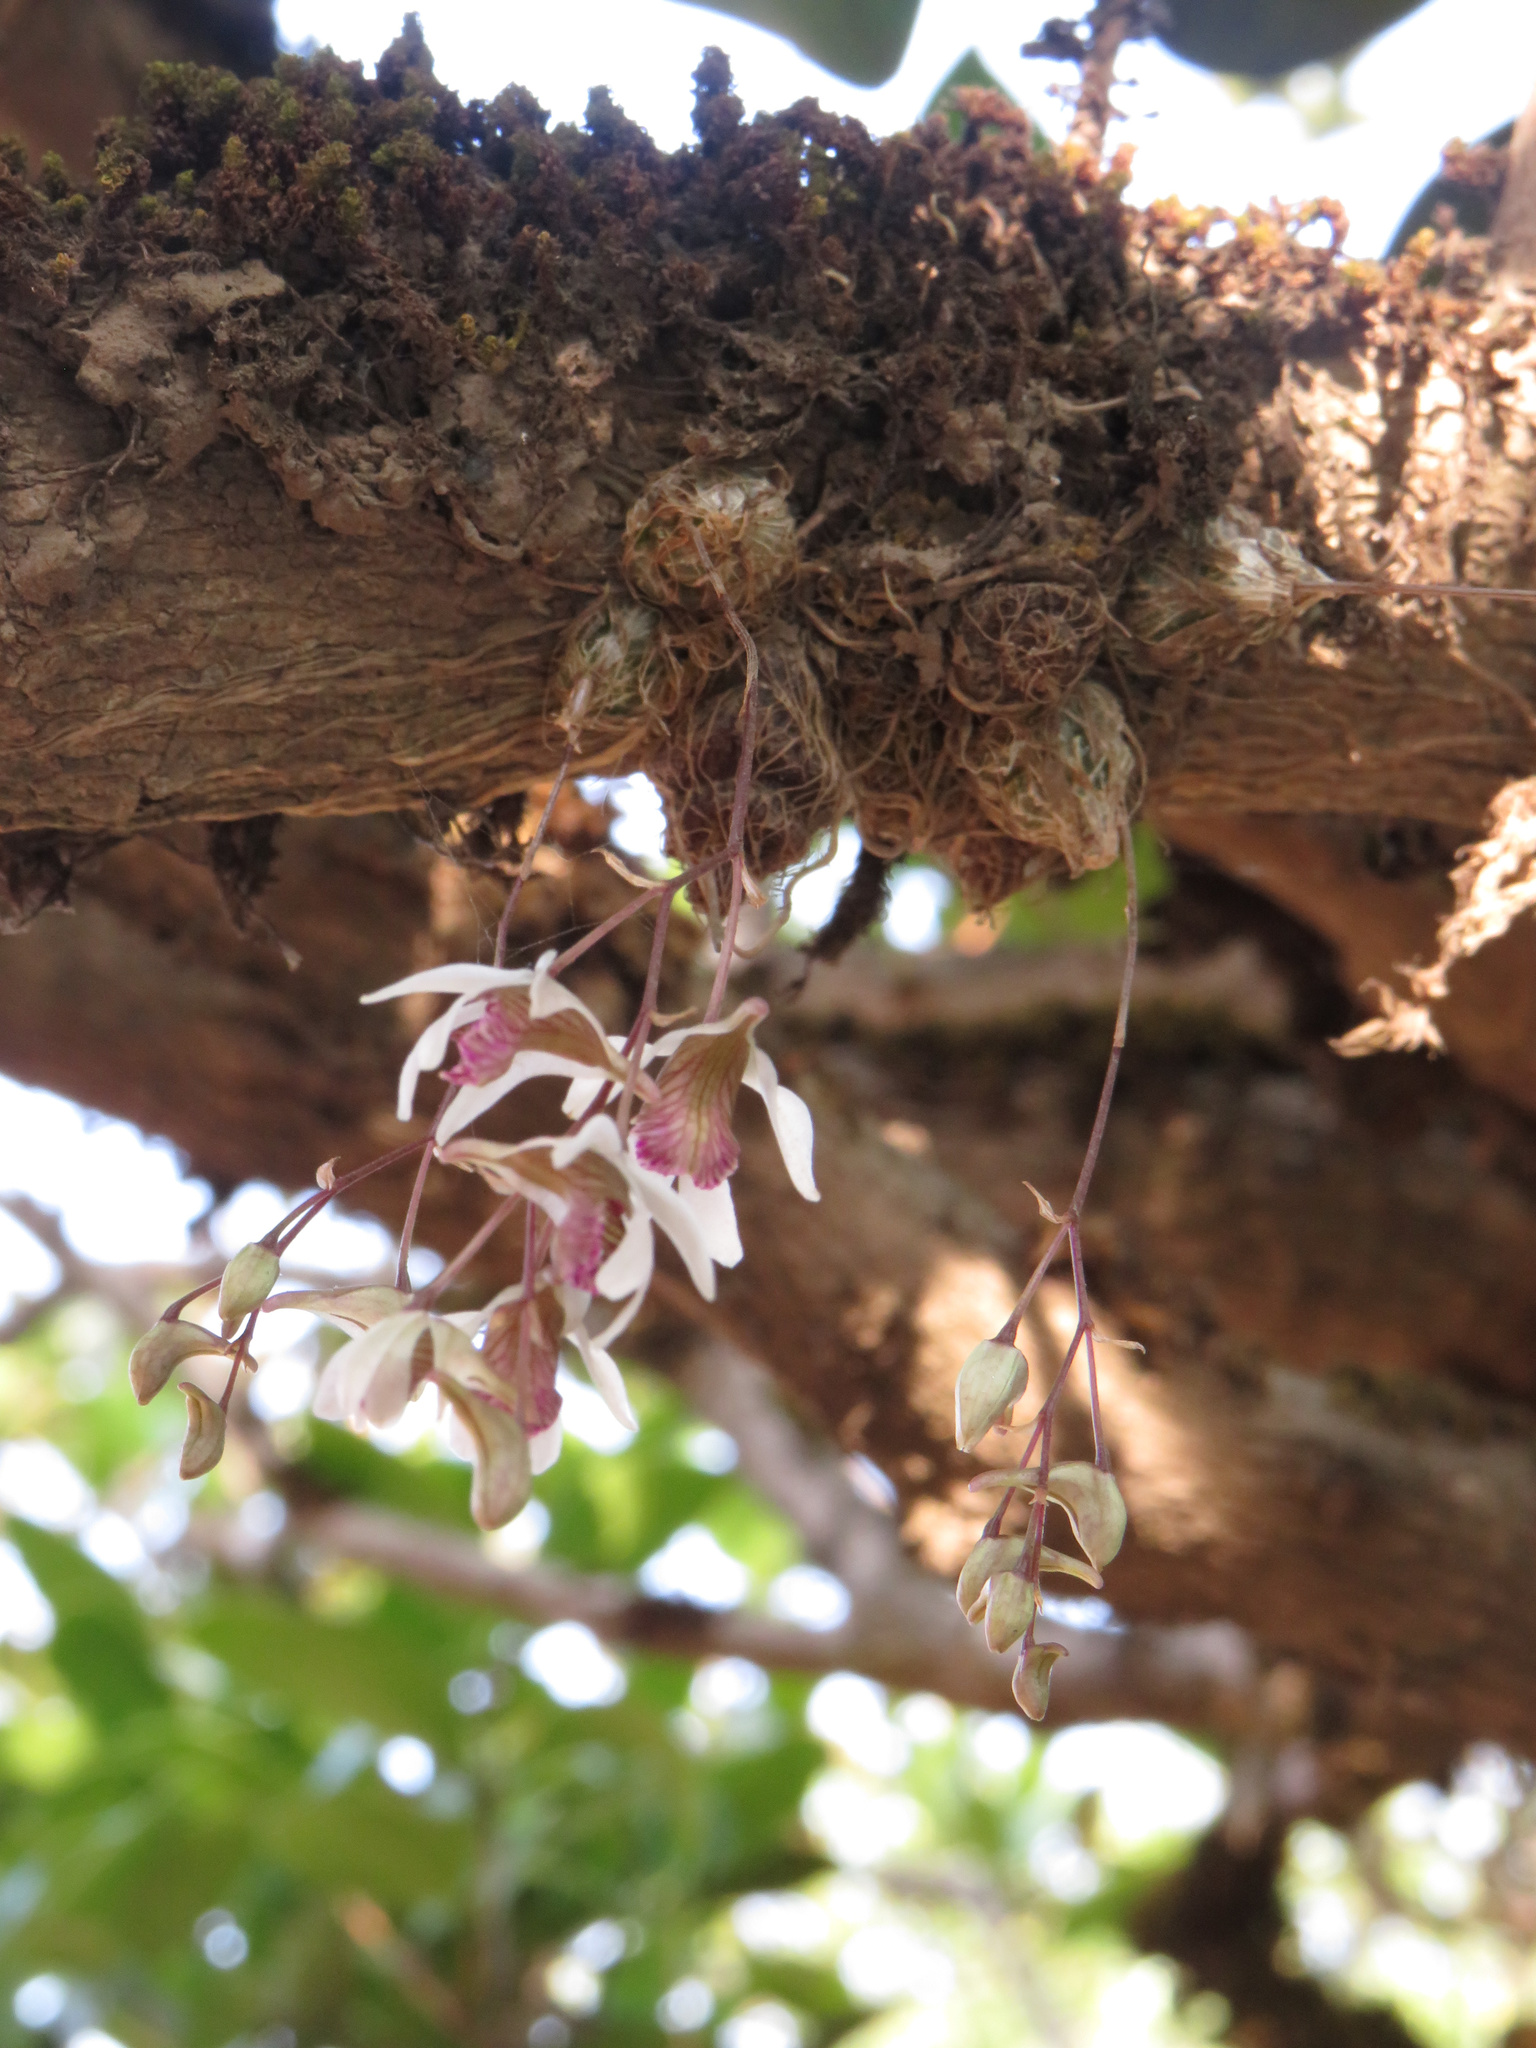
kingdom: Plantae
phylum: Tracheophyta
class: Liliopsida
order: Asparagales
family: Orchidaceae
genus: Dendrobium
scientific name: Dendrobium turbinatum
